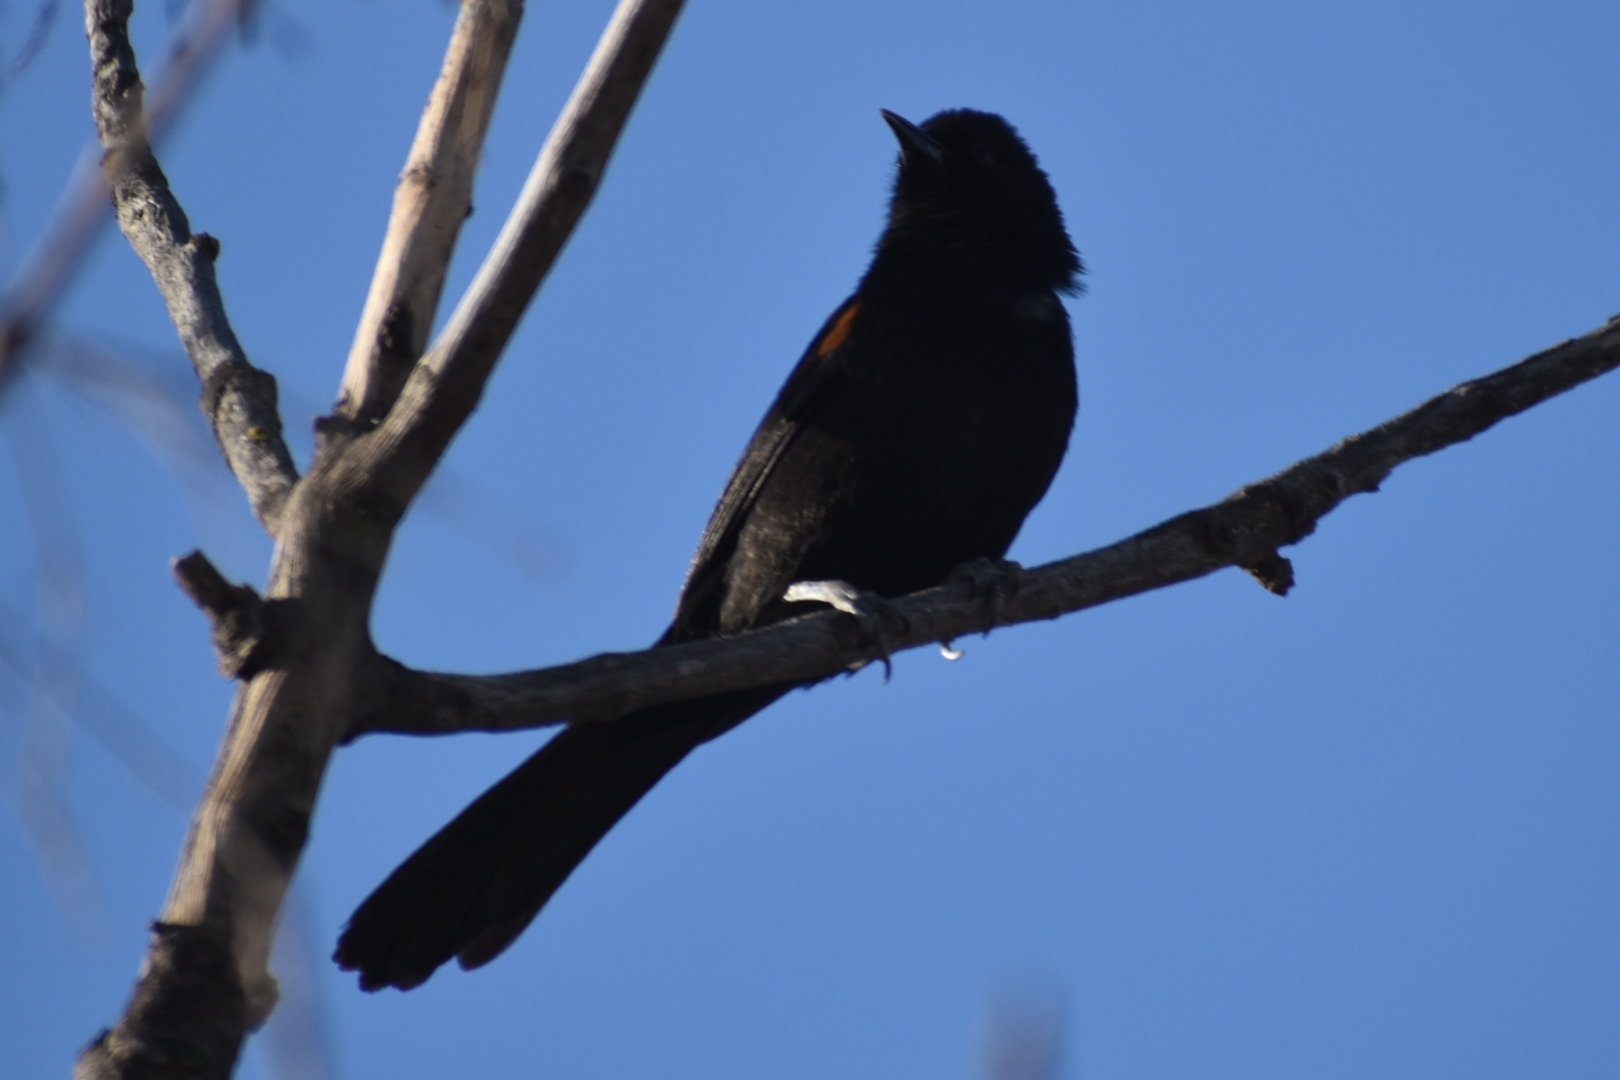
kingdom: Animalia
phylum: Chordata
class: Aves
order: Passeriformes
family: Icteridae
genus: Icterus
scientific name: Icterus cayanensis
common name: Epaulet oriole
